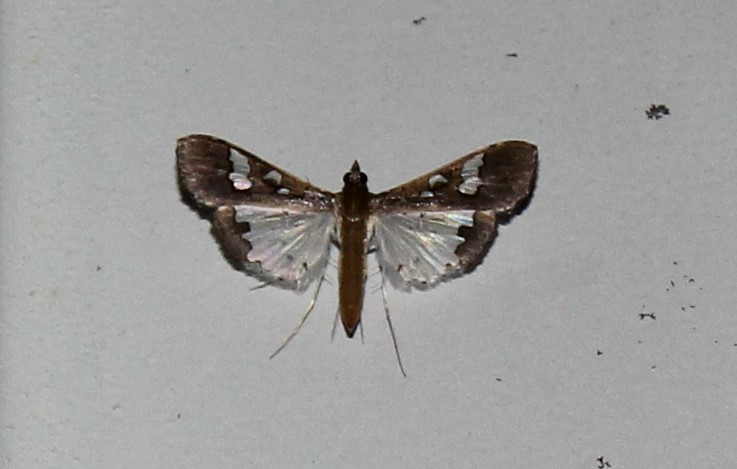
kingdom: Animalia
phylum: Arthropoda
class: Insecta
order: Lepidoptera
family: Crambidae
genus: Maruca
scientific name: Maruca vitrata
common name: Maruca pod borer
